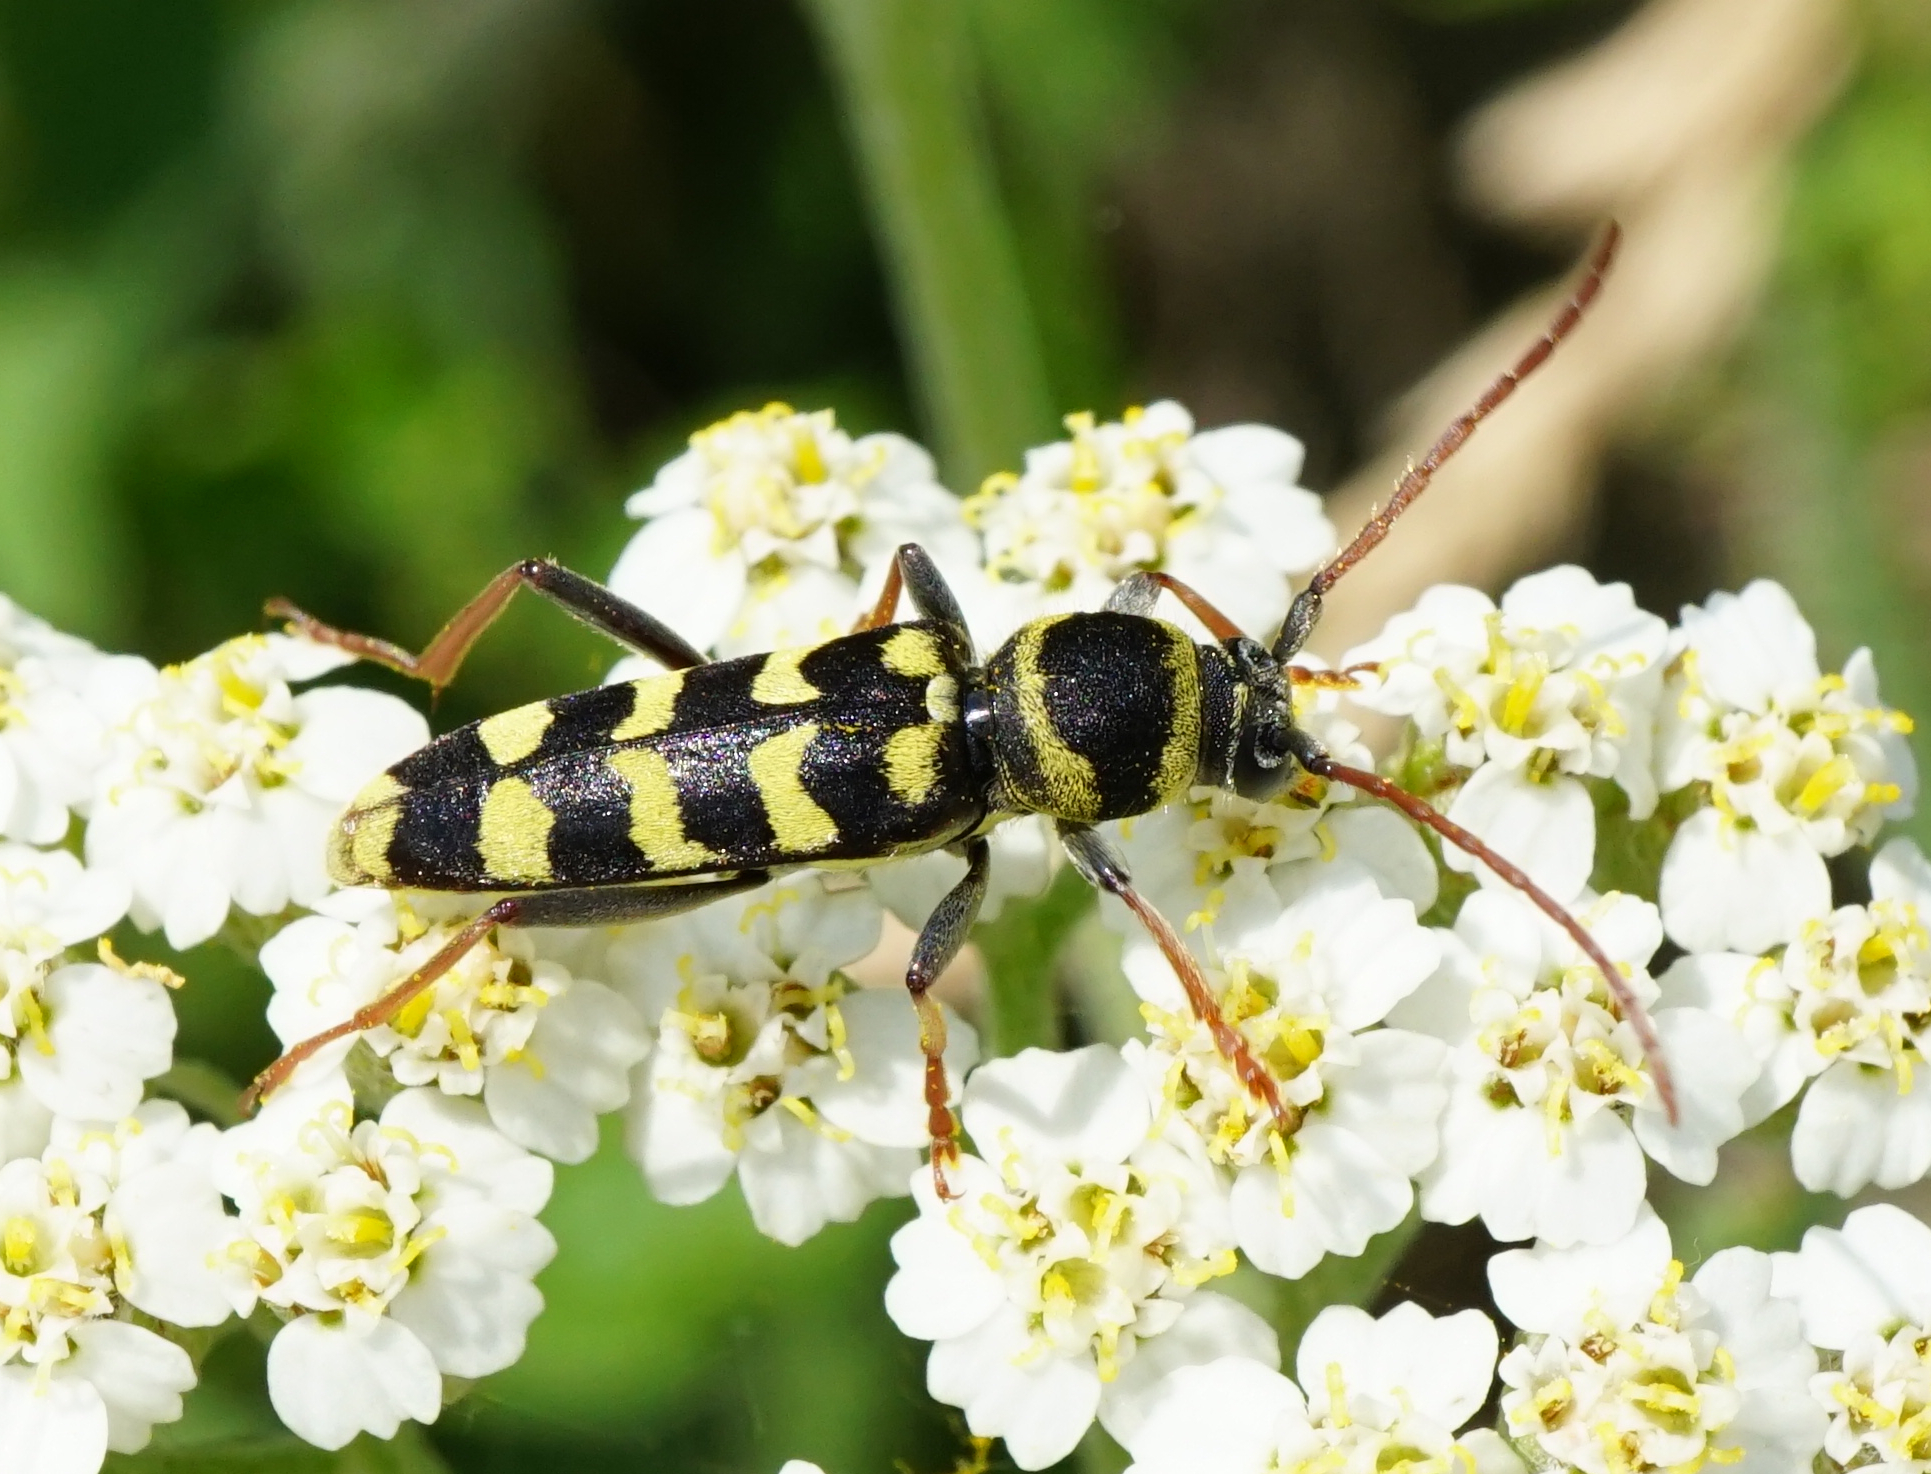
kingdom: Animalia
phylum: Arthropoda
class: Insecta
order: Coleoptera
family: Cerambycidae
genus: Plagionotus
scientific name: Plagionotus floralis
